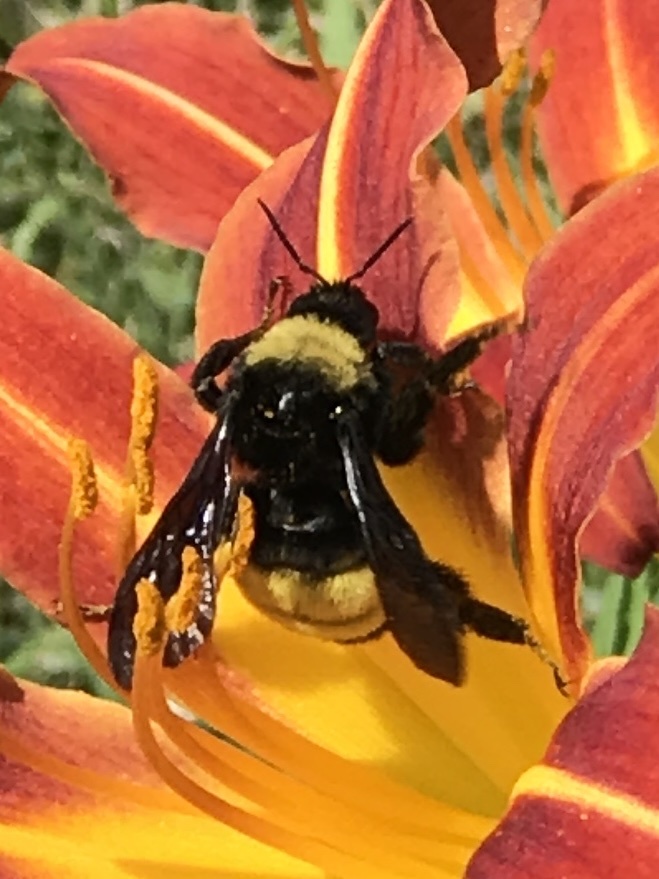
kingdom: Animalia
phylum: Arthropoda
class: Insecta
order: Hymenoptera
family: Apidae
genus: Bombus
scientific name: Bombus pensylvanicus
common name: Bumble bee
